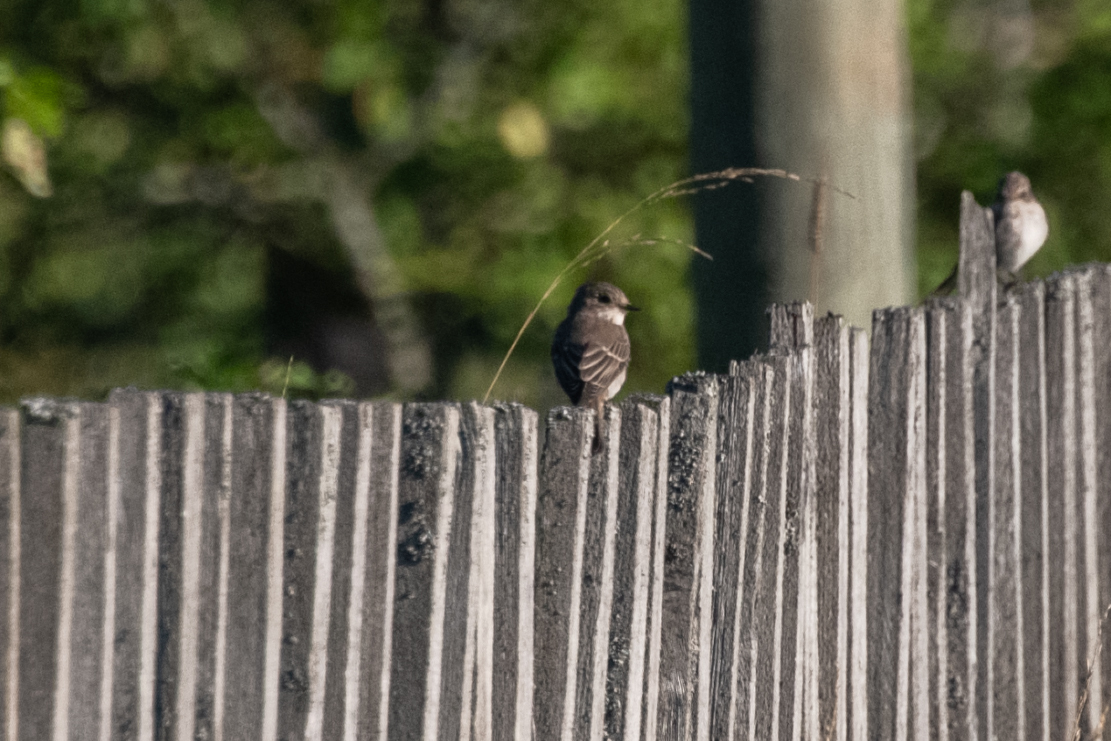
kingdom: Animalia
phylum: Chordata
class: Aves
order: Passeriformes
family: Muscicapidae
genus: Muscicapa
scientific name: Muscicapa striata
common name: Spotted flycatcher
